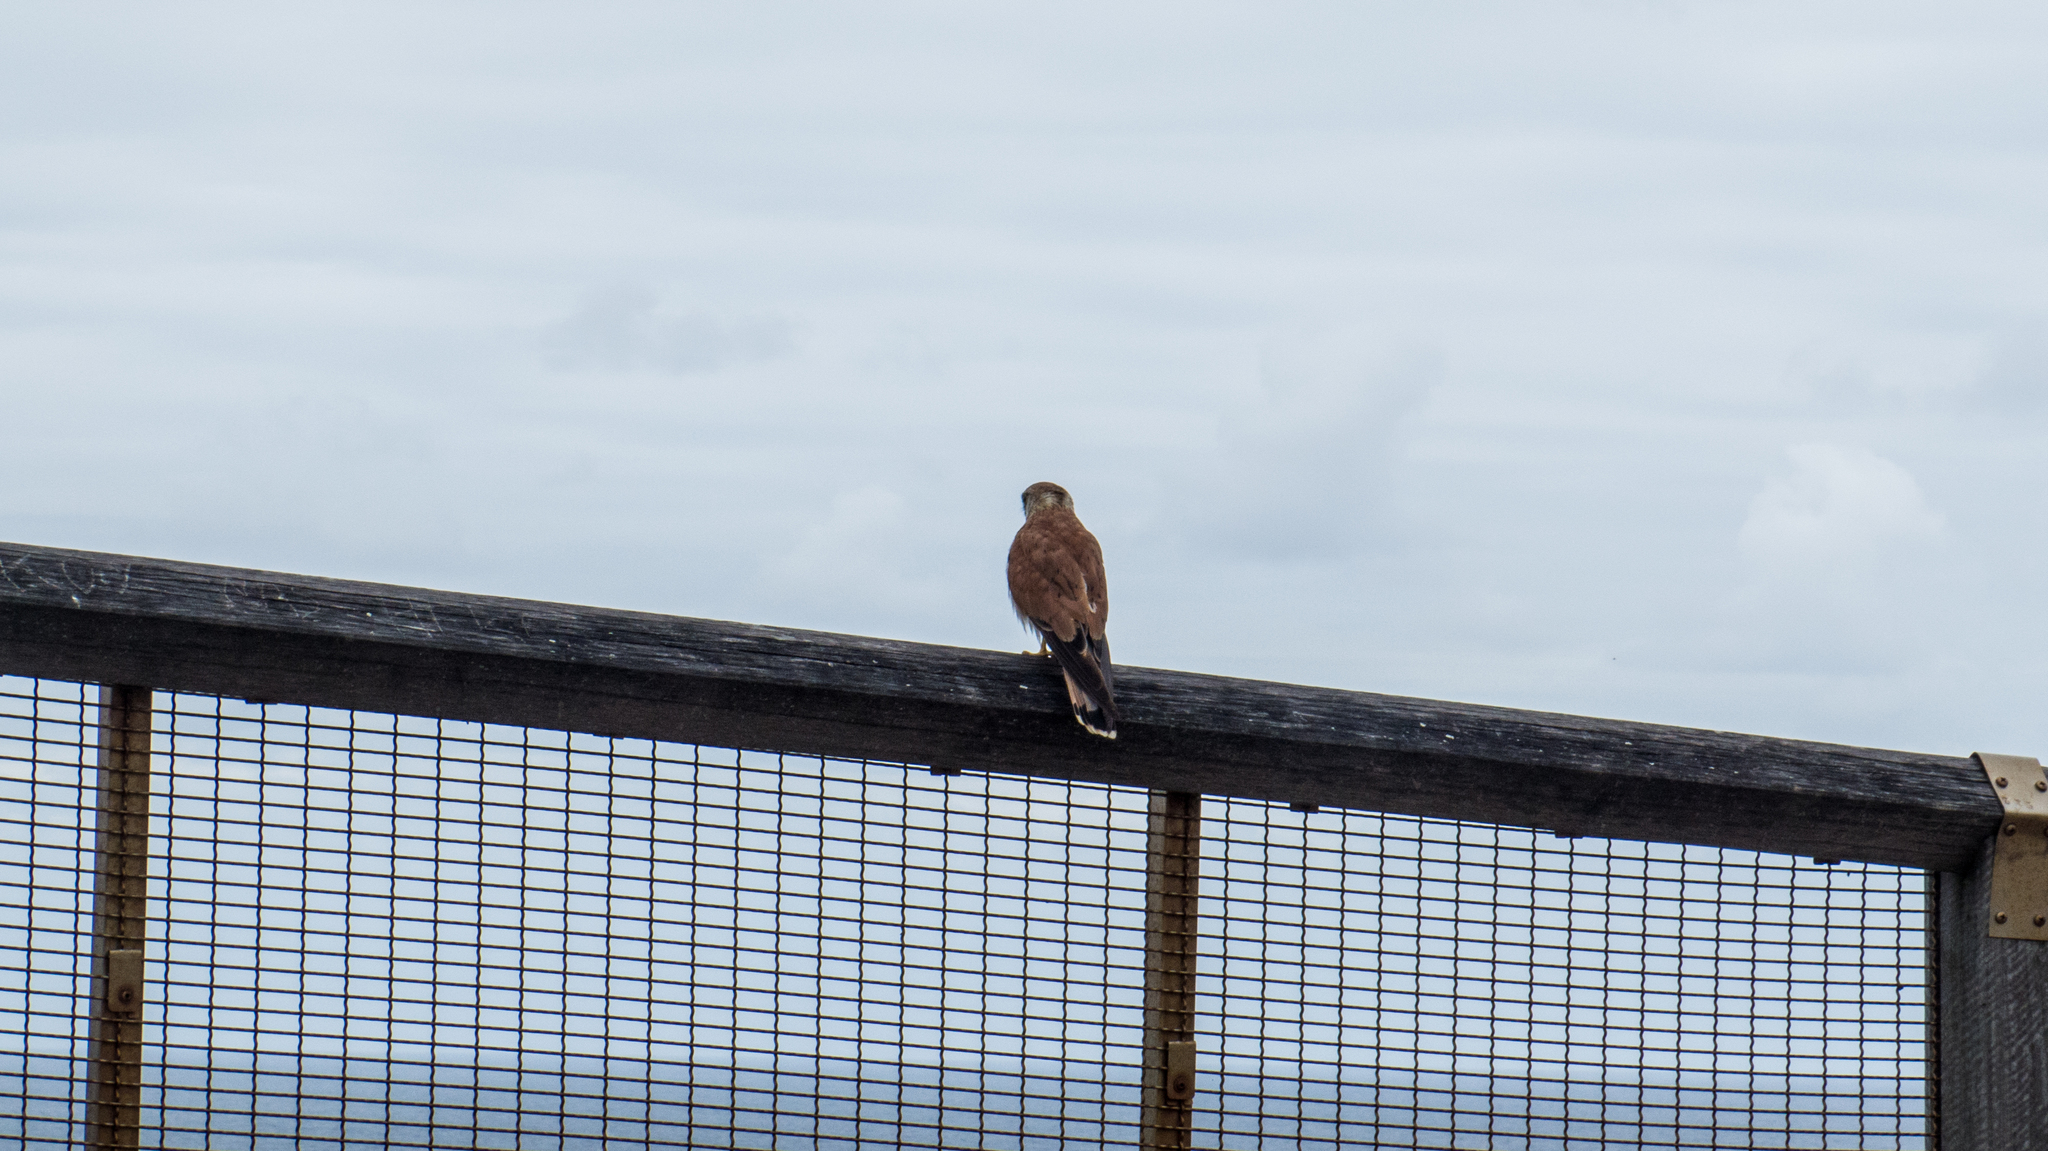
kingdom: Animalia
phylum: Chordata
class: Aves
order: Falconiformes
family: Falconidae
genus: Falco
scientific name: Falco cenchroides
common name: Nankeen kestrel
